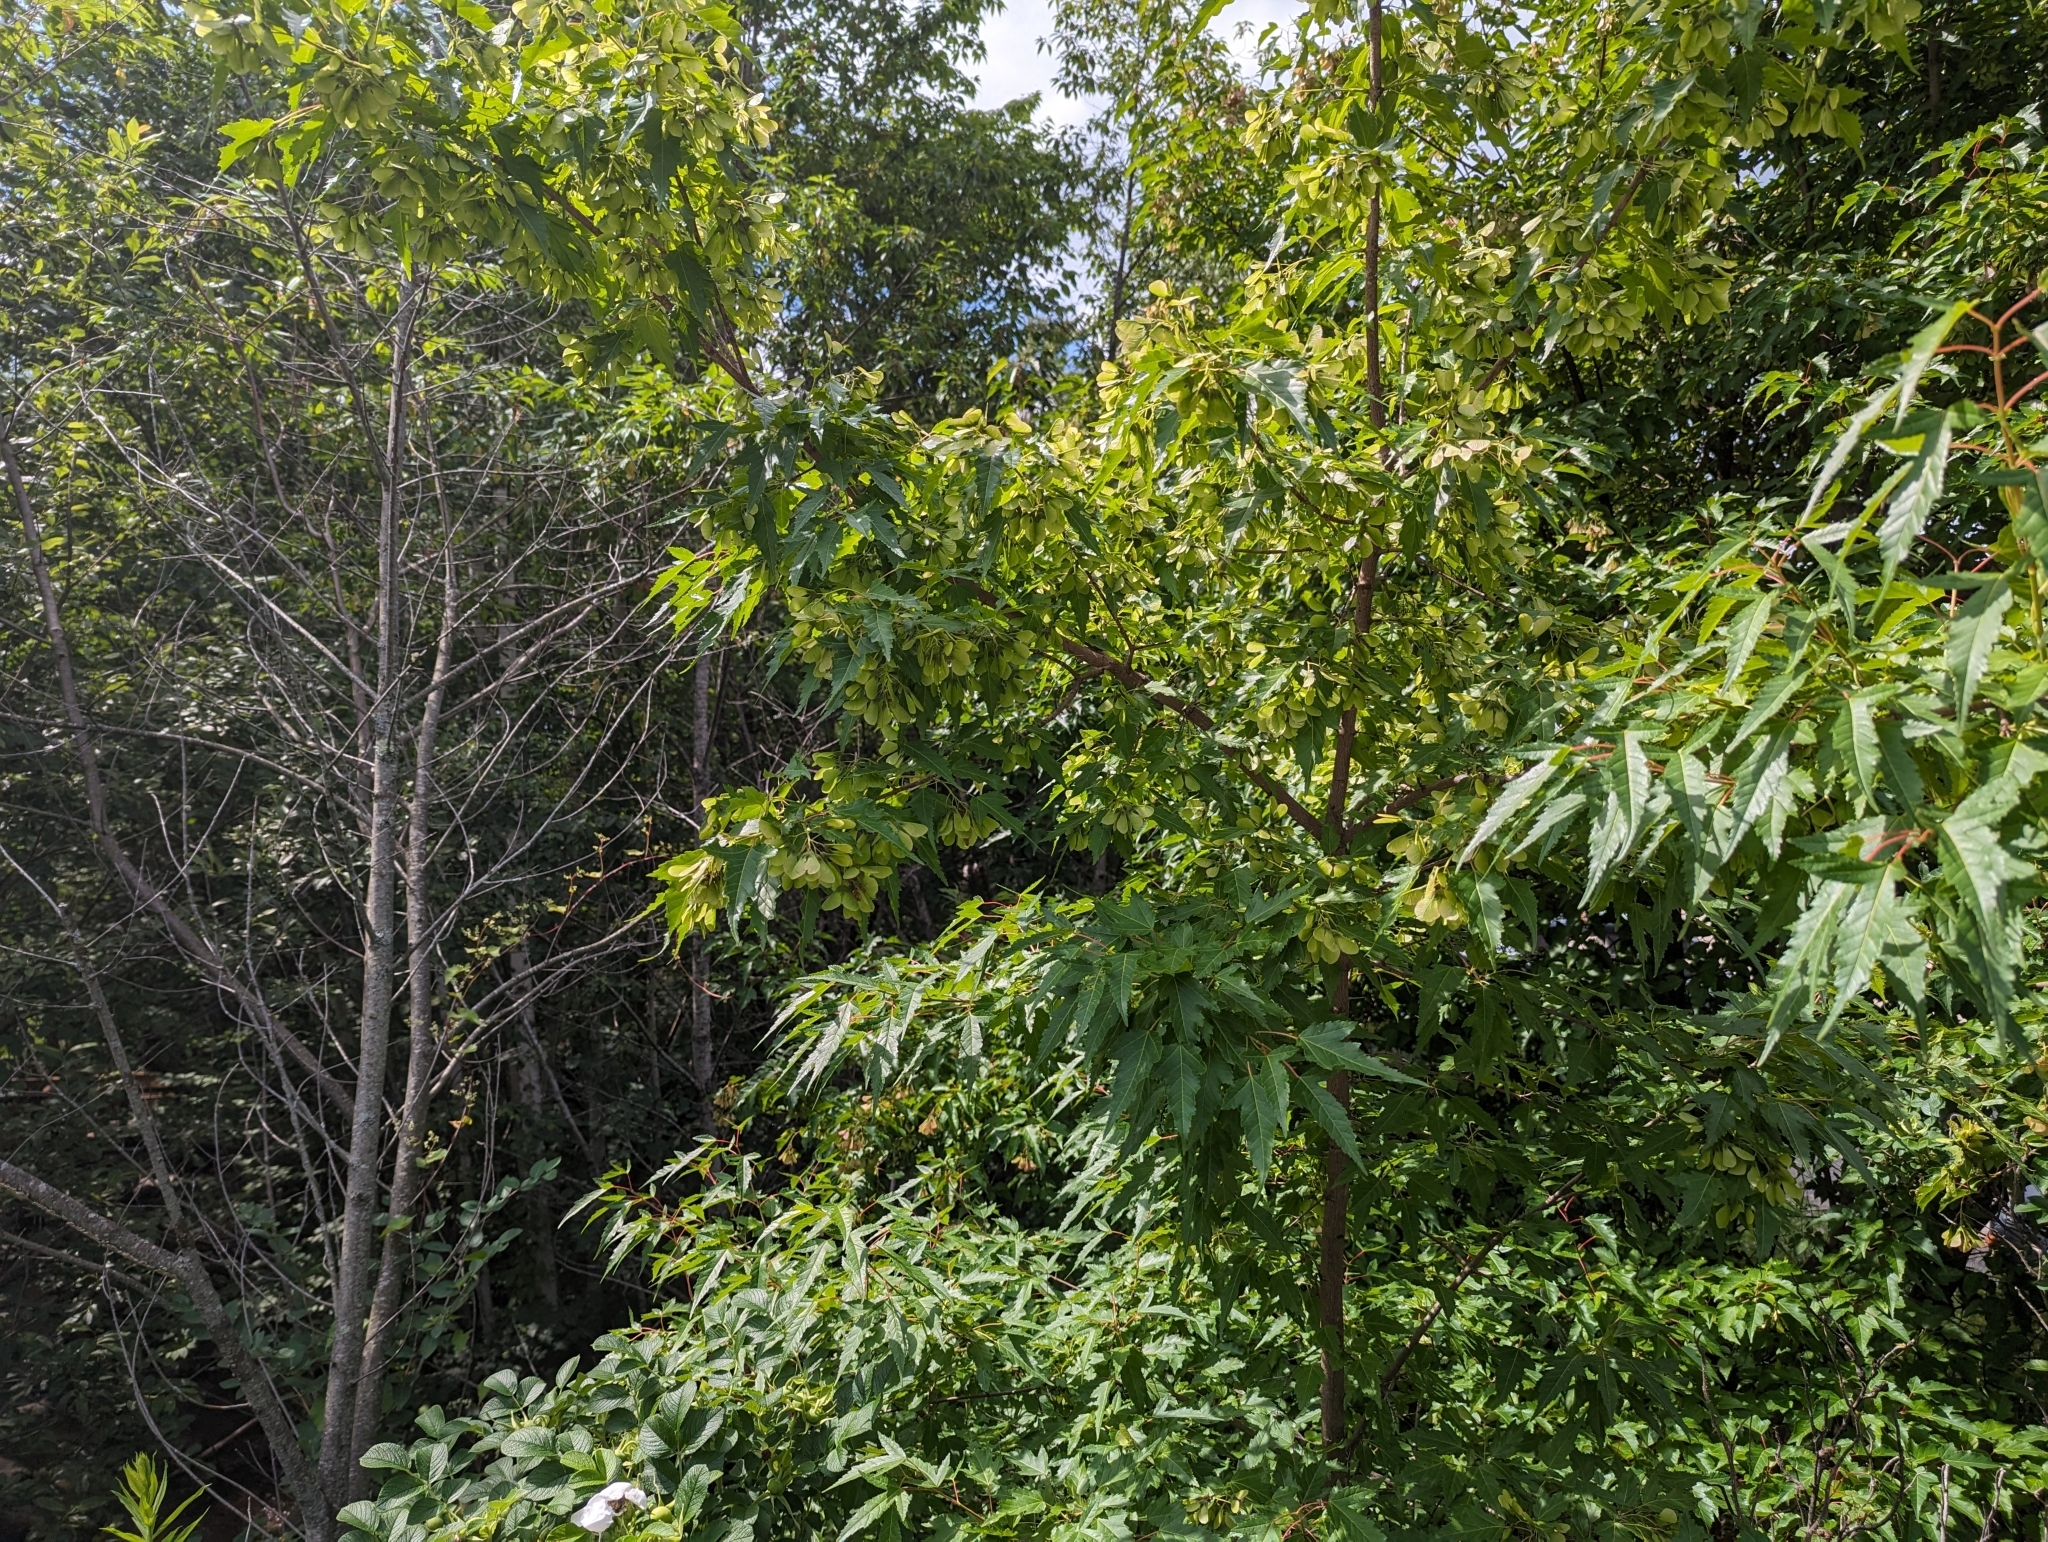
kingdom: Plantae
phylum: Tracheophyta
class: Magnoliopsida
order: Sapindales
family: Sapindaceae
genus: Acer
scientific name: Acer tataricum
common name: Tartar maple
